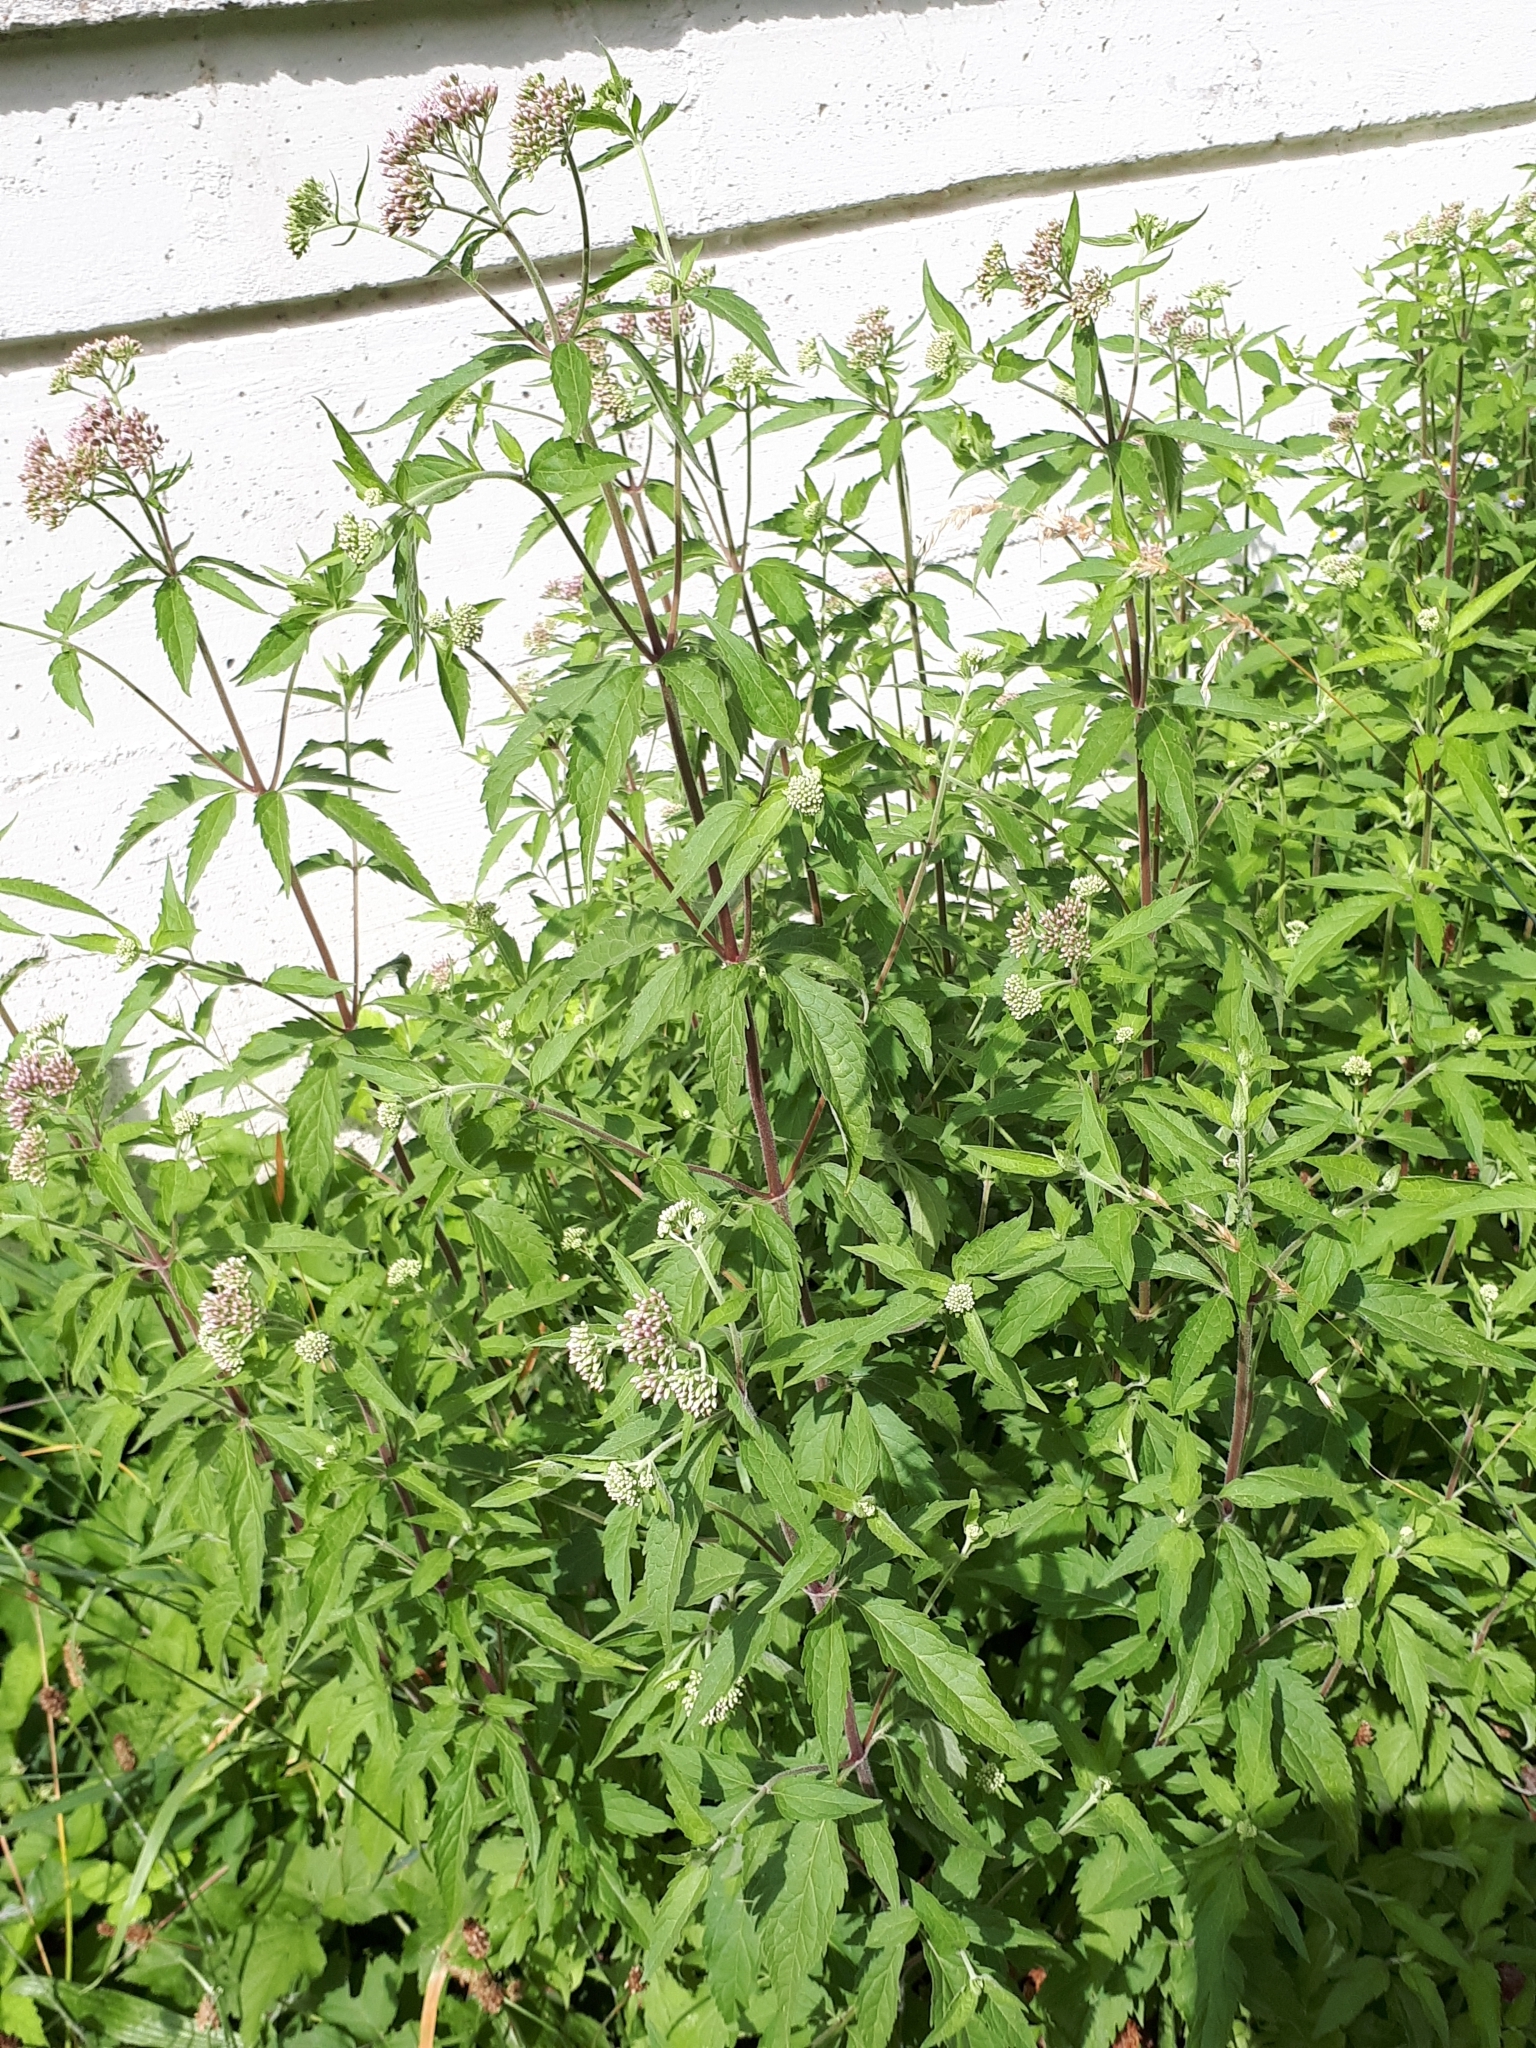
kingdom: Plantae
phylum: Tracheophyta
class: Magnoliopsida
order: Asterales
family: Asteraceae
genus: Eupatorium
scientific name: Eupatorium cannabinum
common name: Hemp-agrimony
